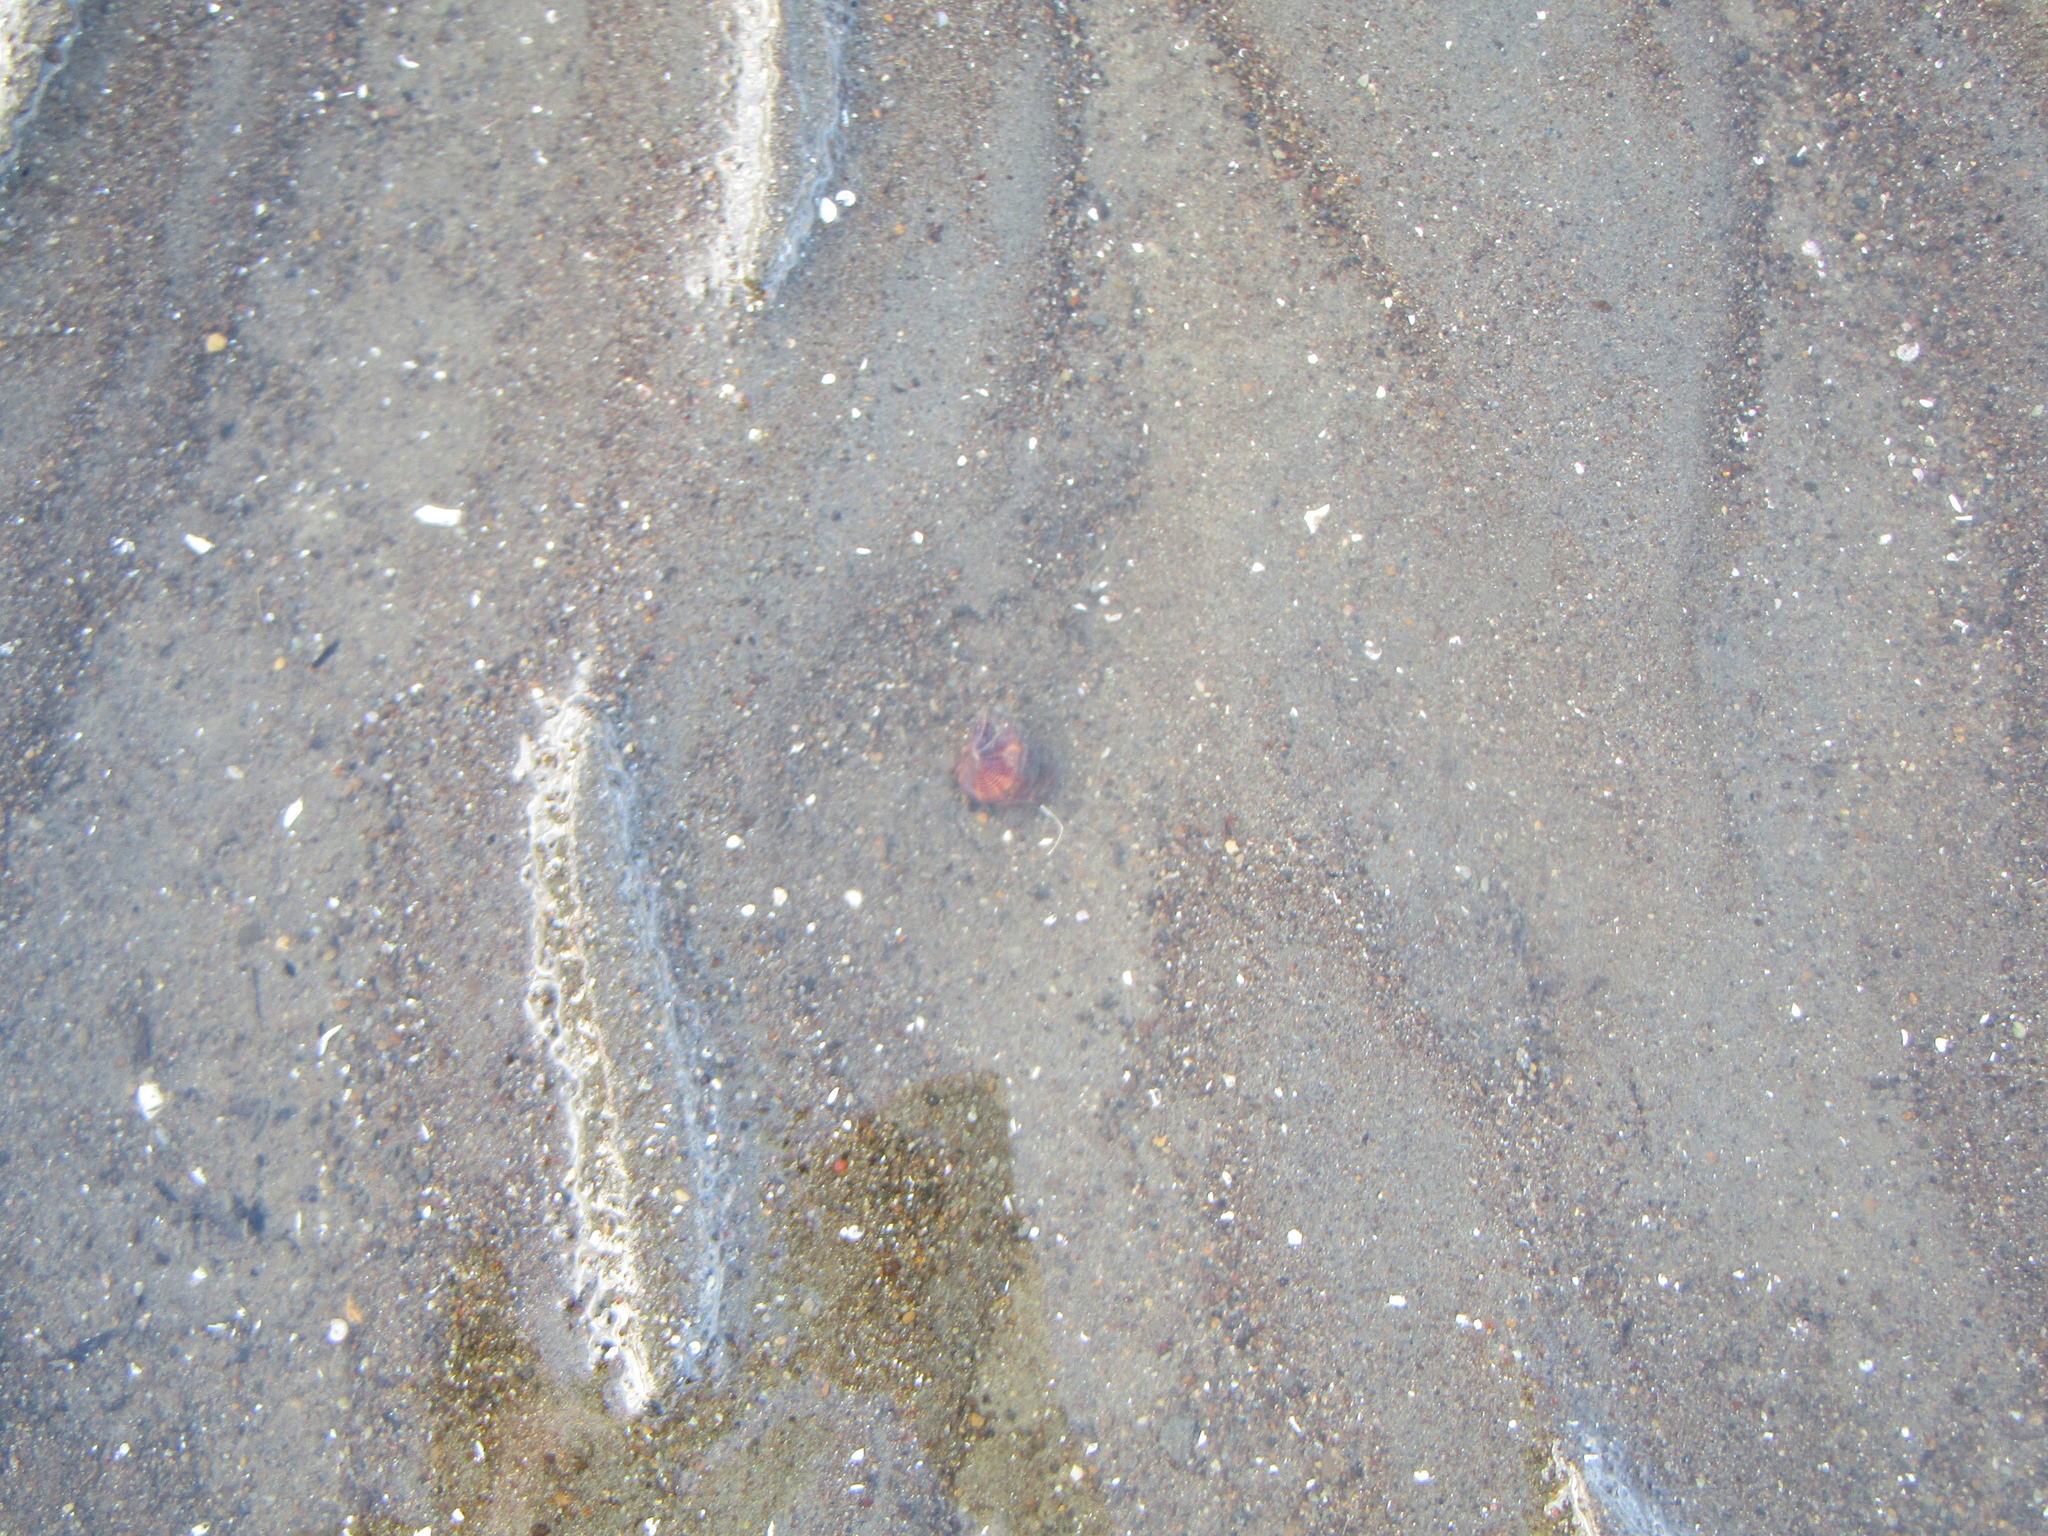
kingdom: Animalia
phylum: Mollusca
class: Gastropoda
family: Turritellidae
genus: Maoricolpus
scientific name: Maoricolpus roseus
